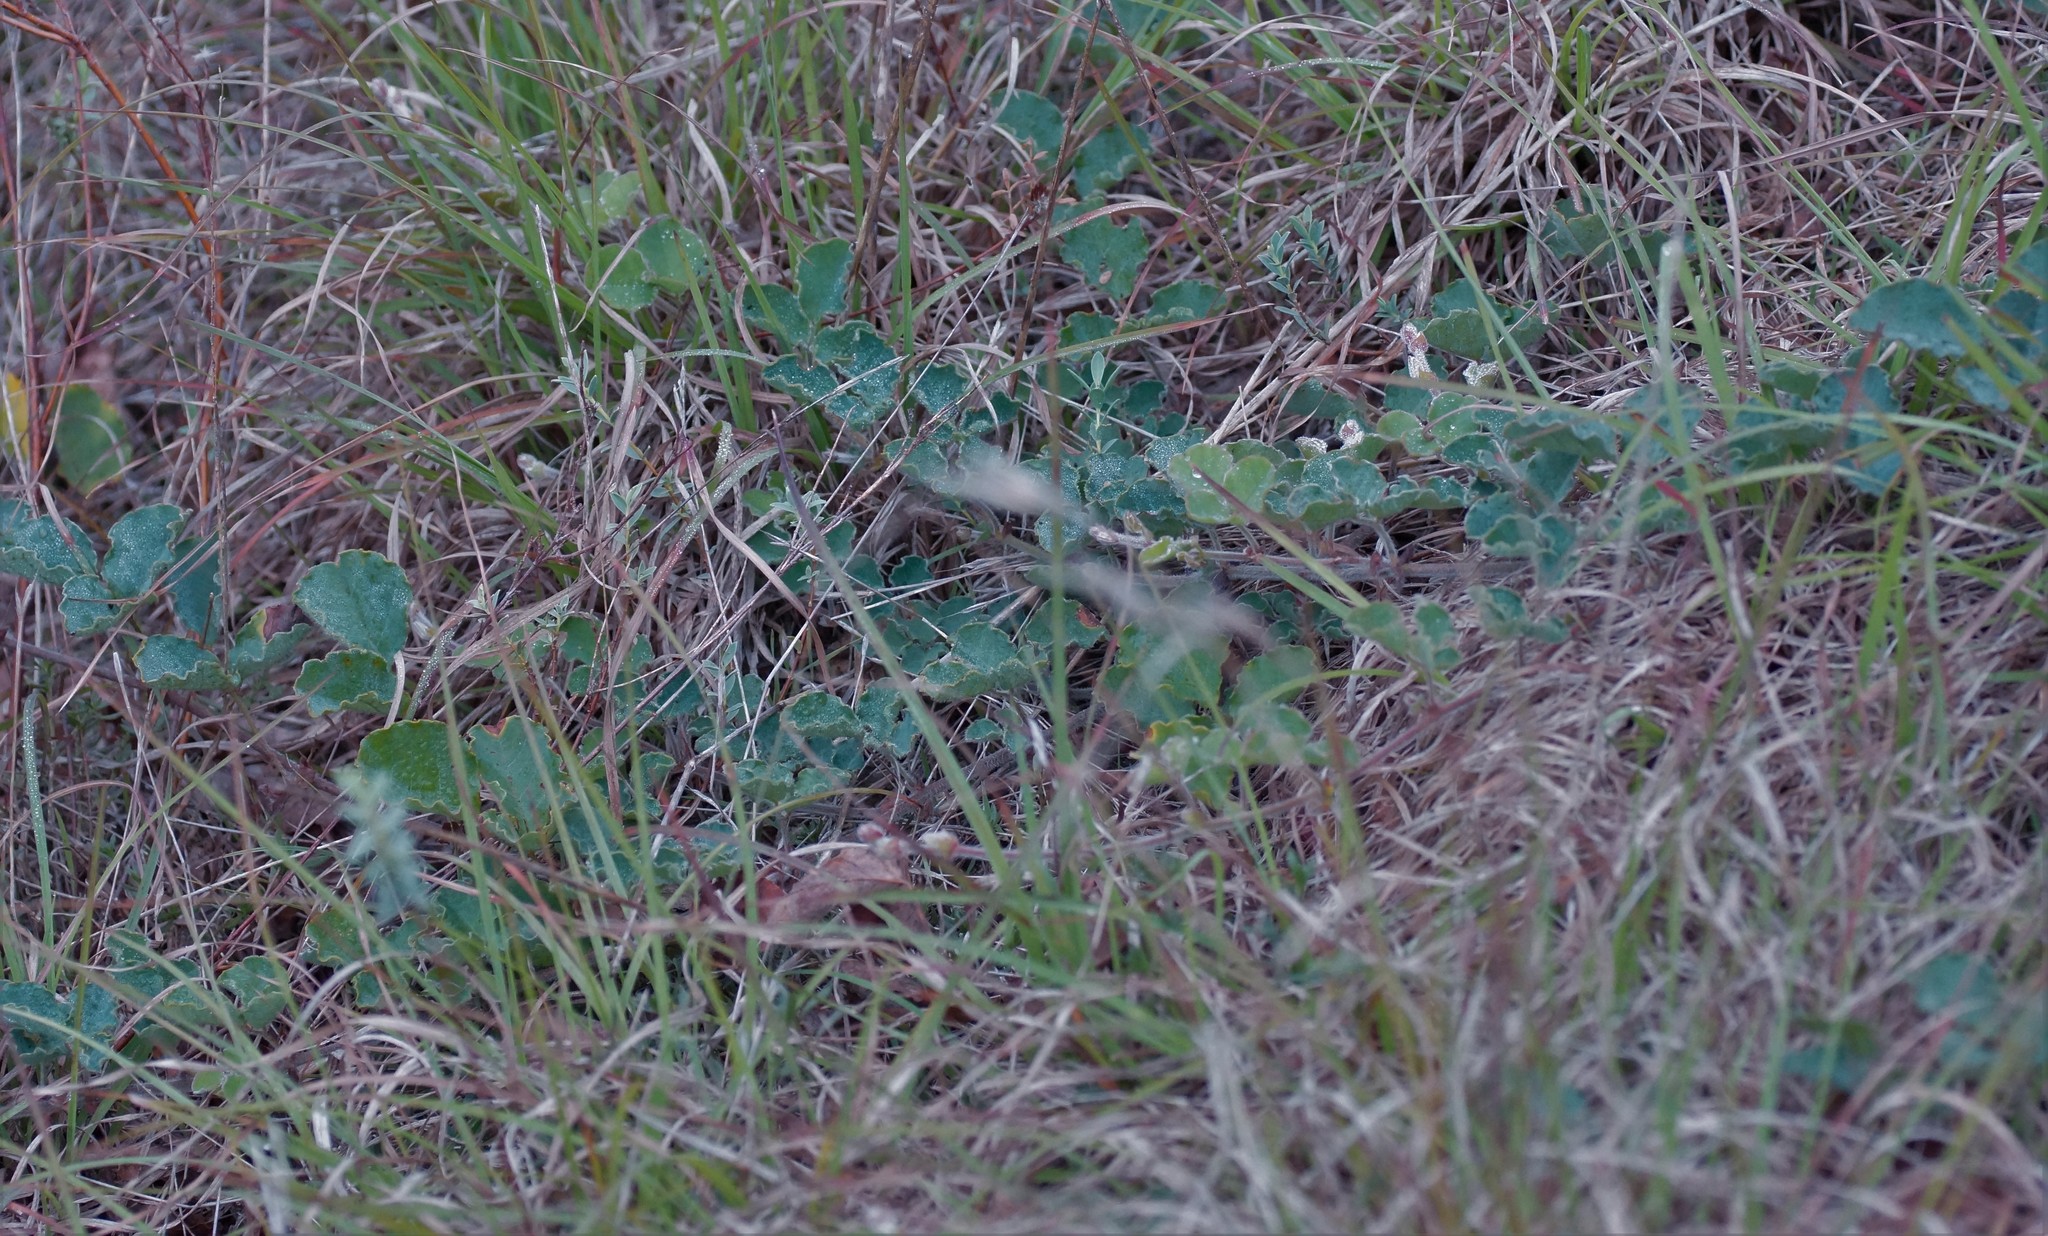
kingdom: Plantae
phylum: Tracheophyta
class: Magnoliopsida
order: Fabales
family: Fabaceae
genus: Kennedia
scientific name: Kennedia prostrata
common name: Running-postman
